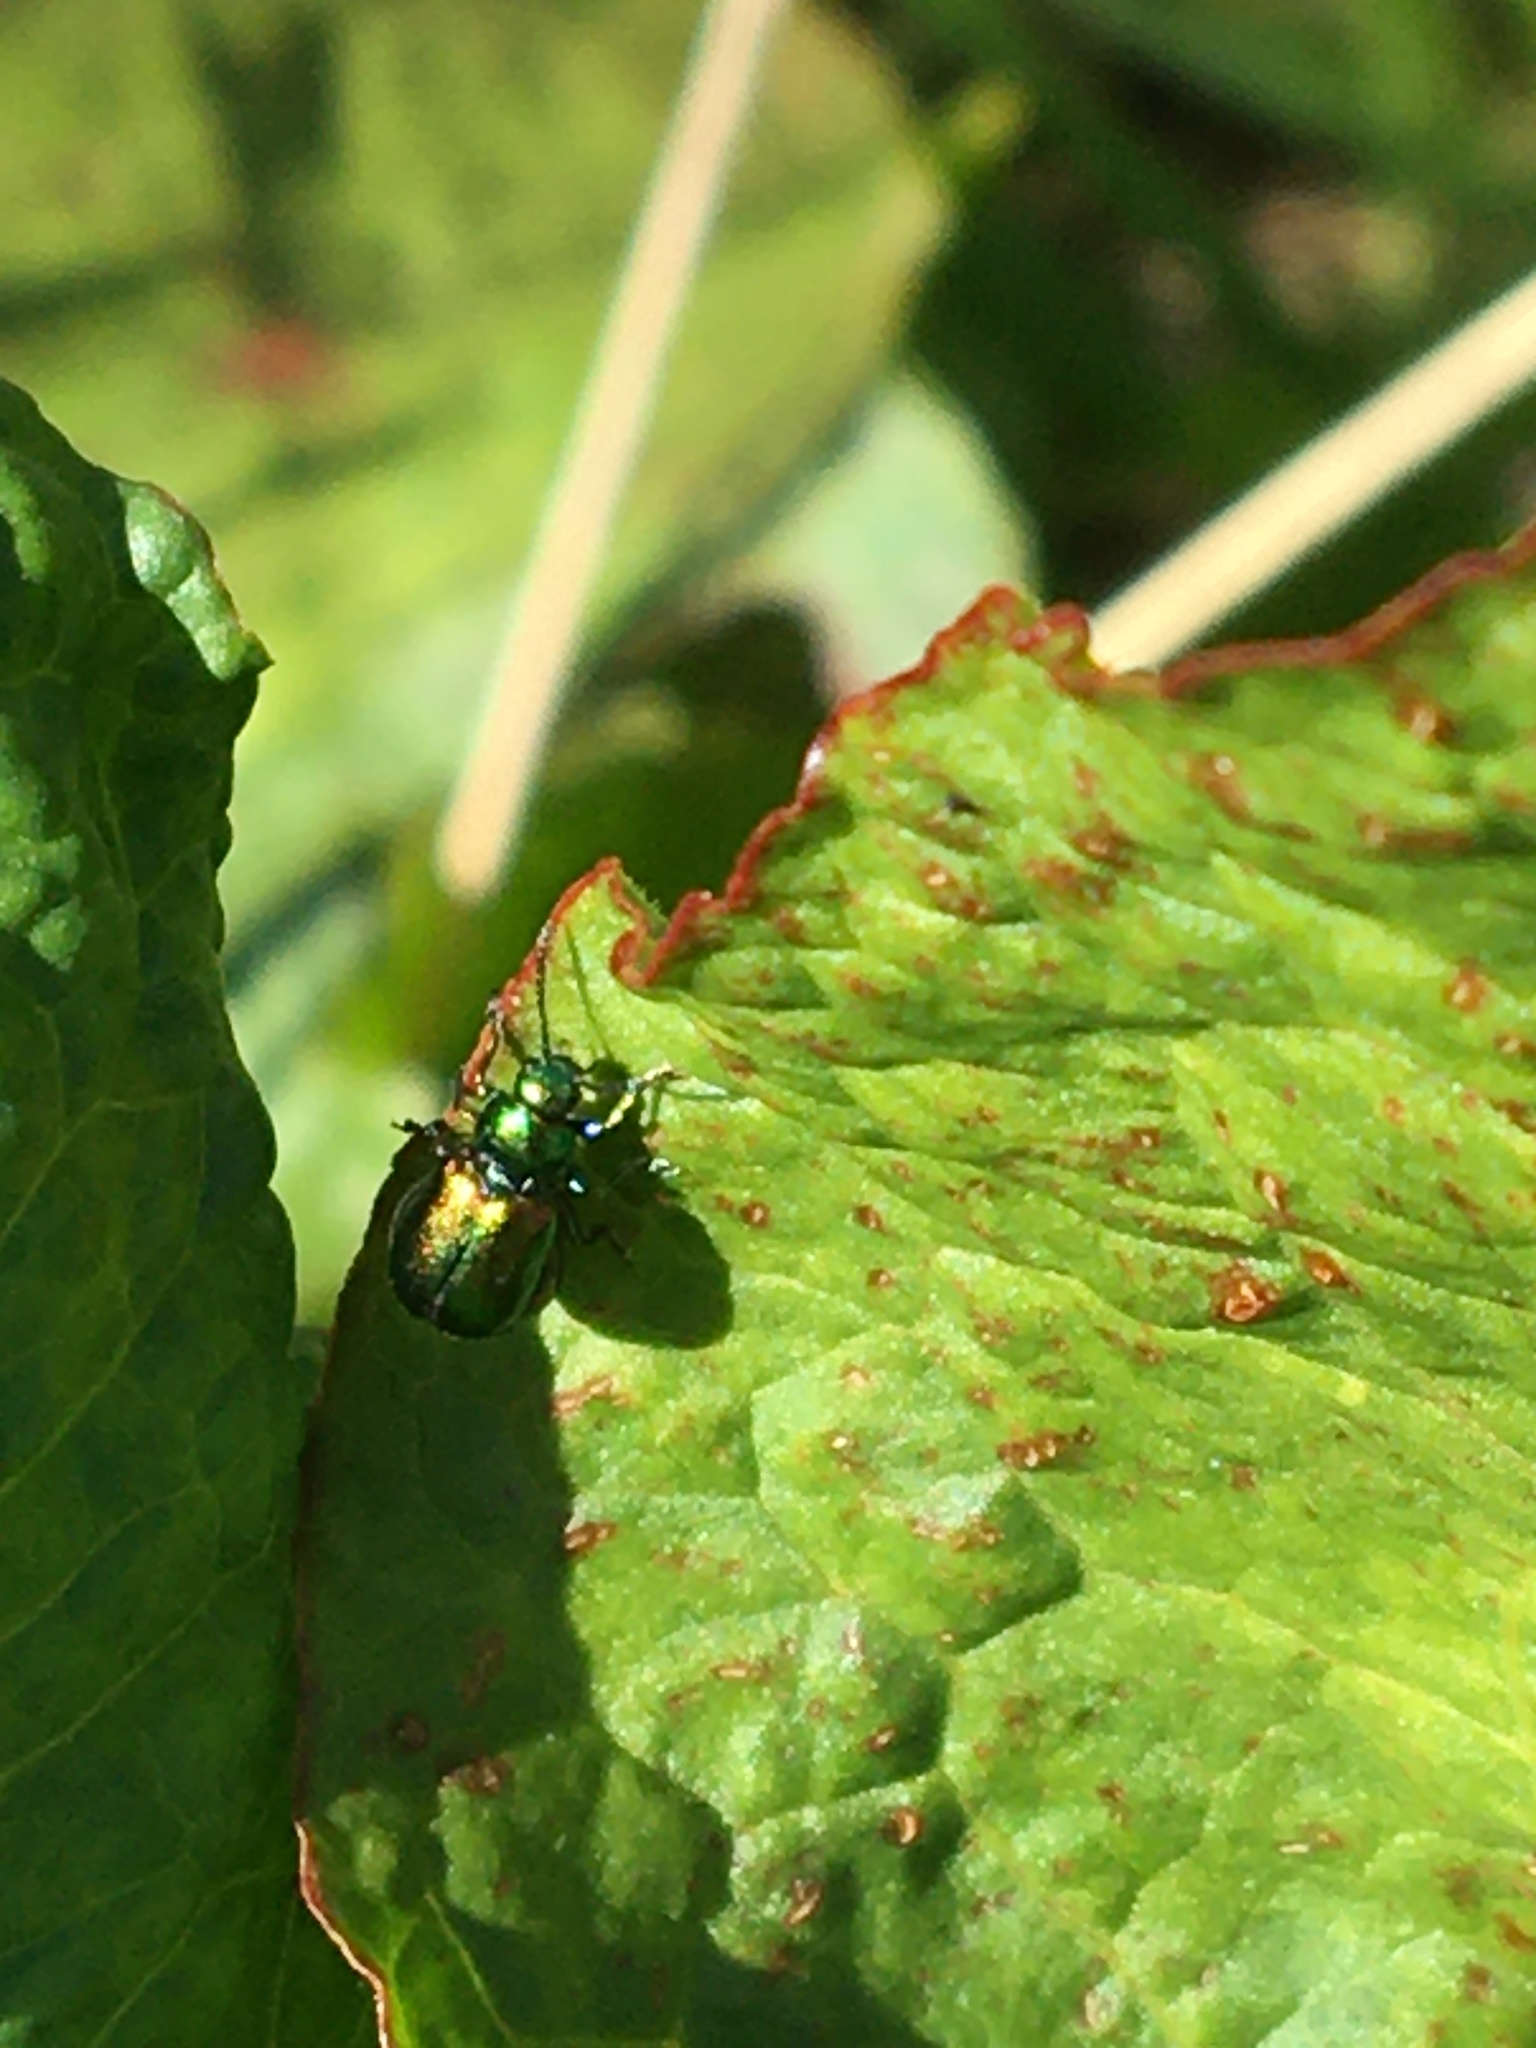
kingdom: Animalia
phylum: Arthropoda
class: Insecta
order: Coleoptera
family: Chrysomelidae
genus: Gastrophysa
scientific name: Gastrophysa viridula
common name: Green dock beetle
